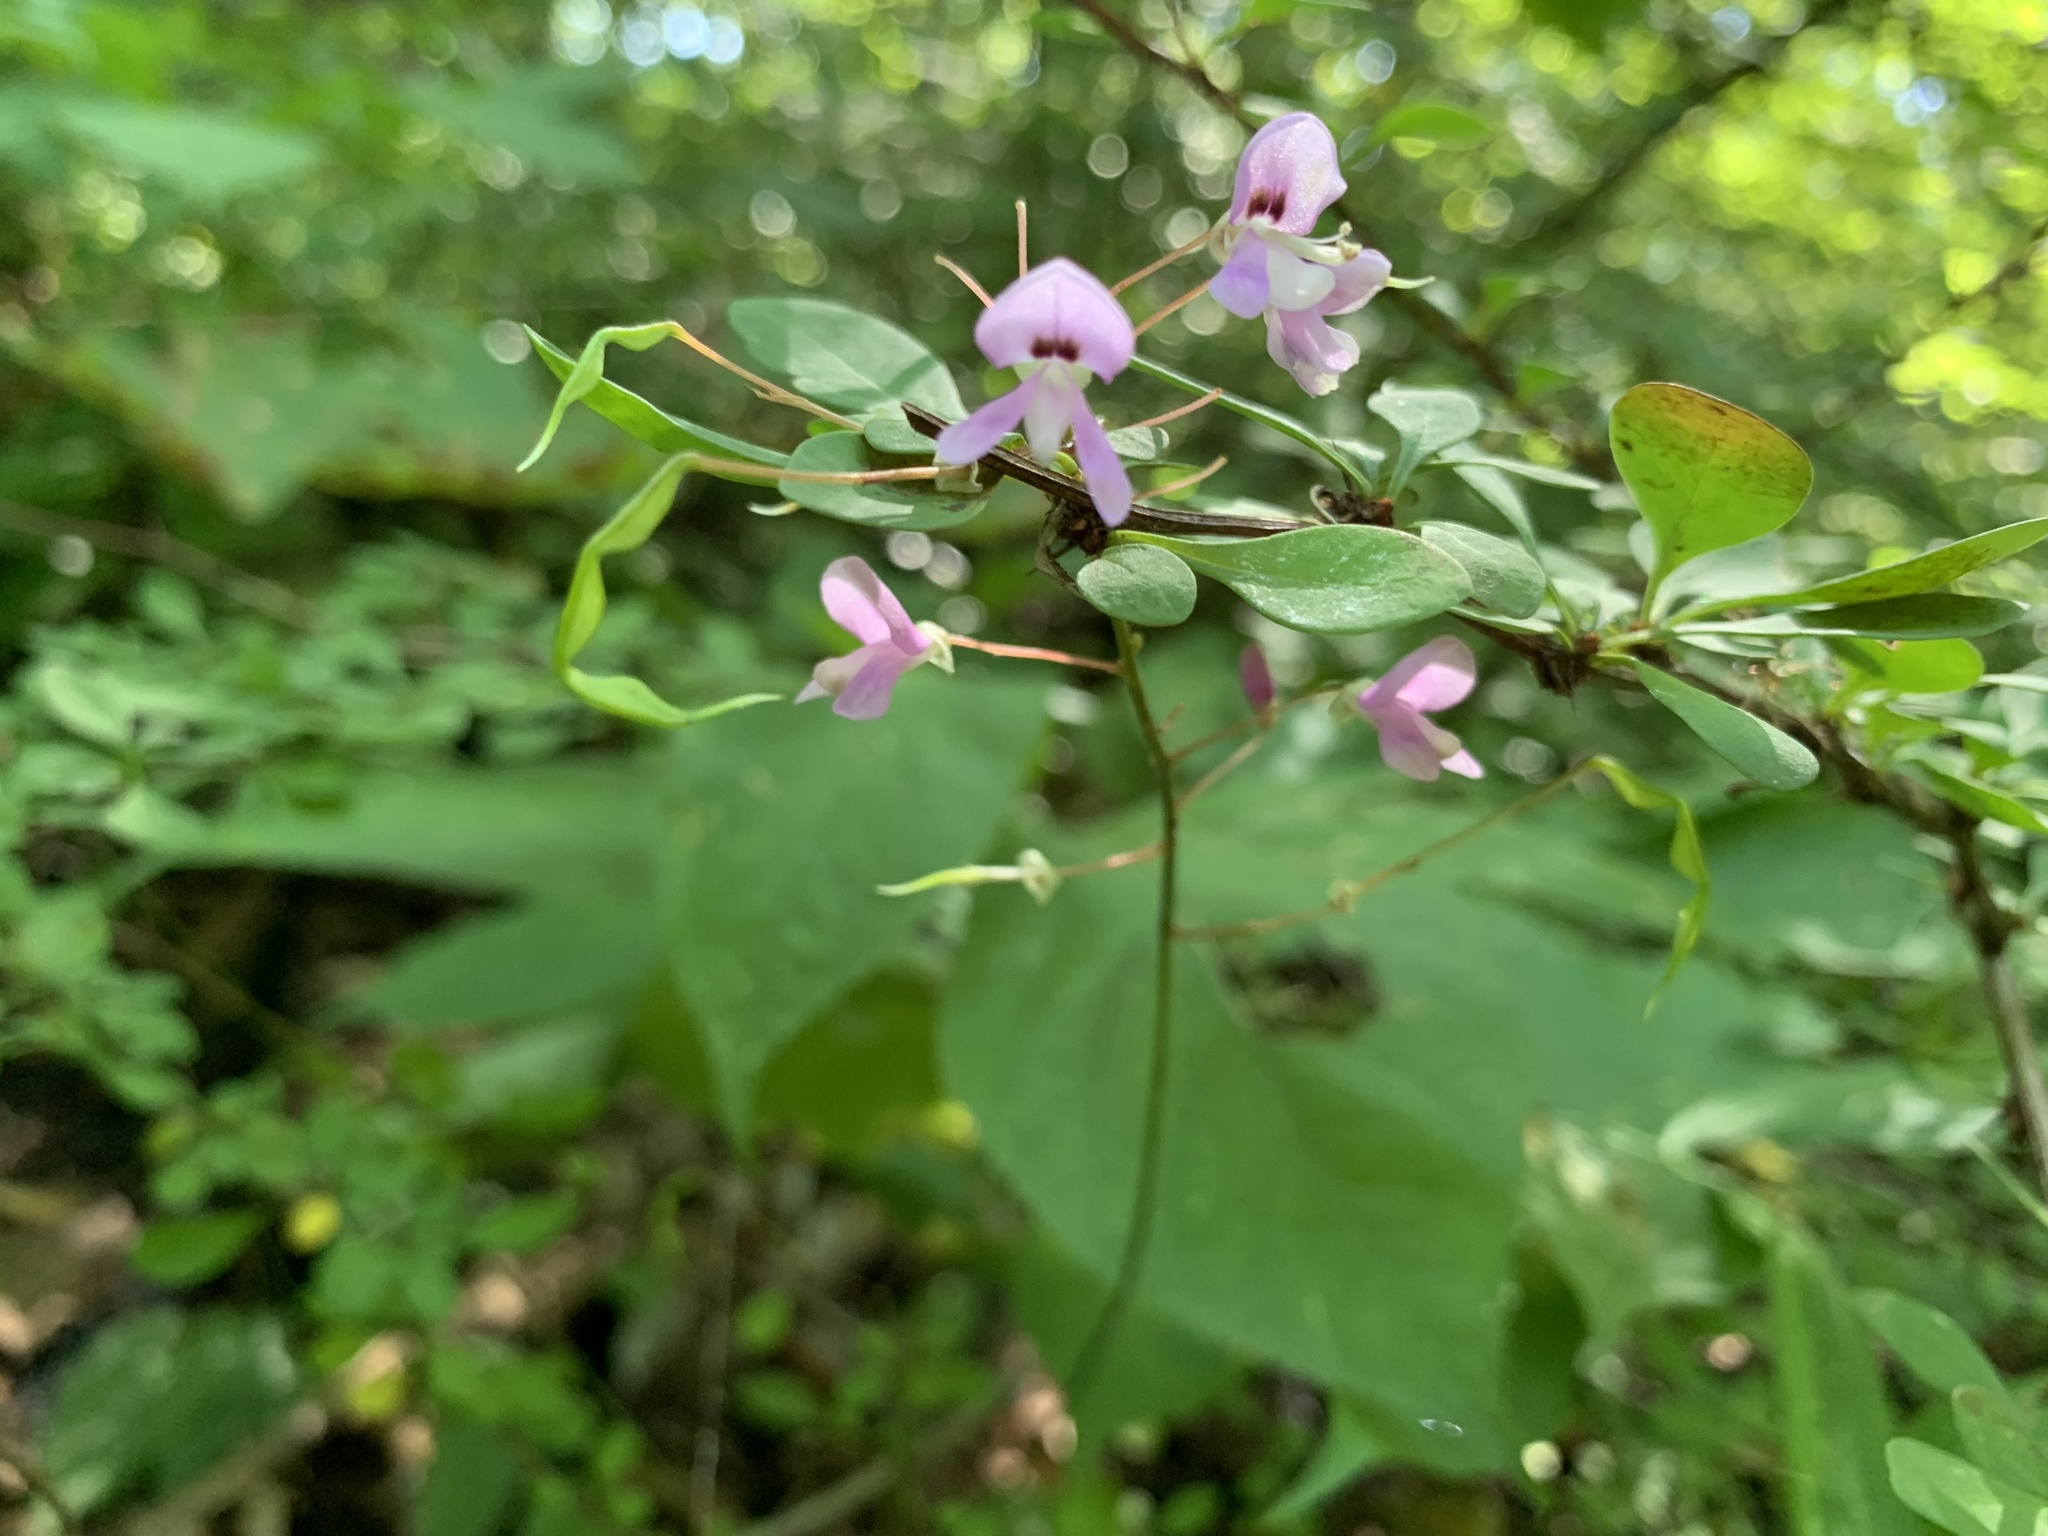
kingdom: Plantae
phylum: Tracheophyta
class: Magnoliopsida
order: Fabales
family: Fabaceae
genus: Hylodesmum
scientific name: Hylodesmum nudiflorum
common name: Bare-stemmed tick-trefoil
